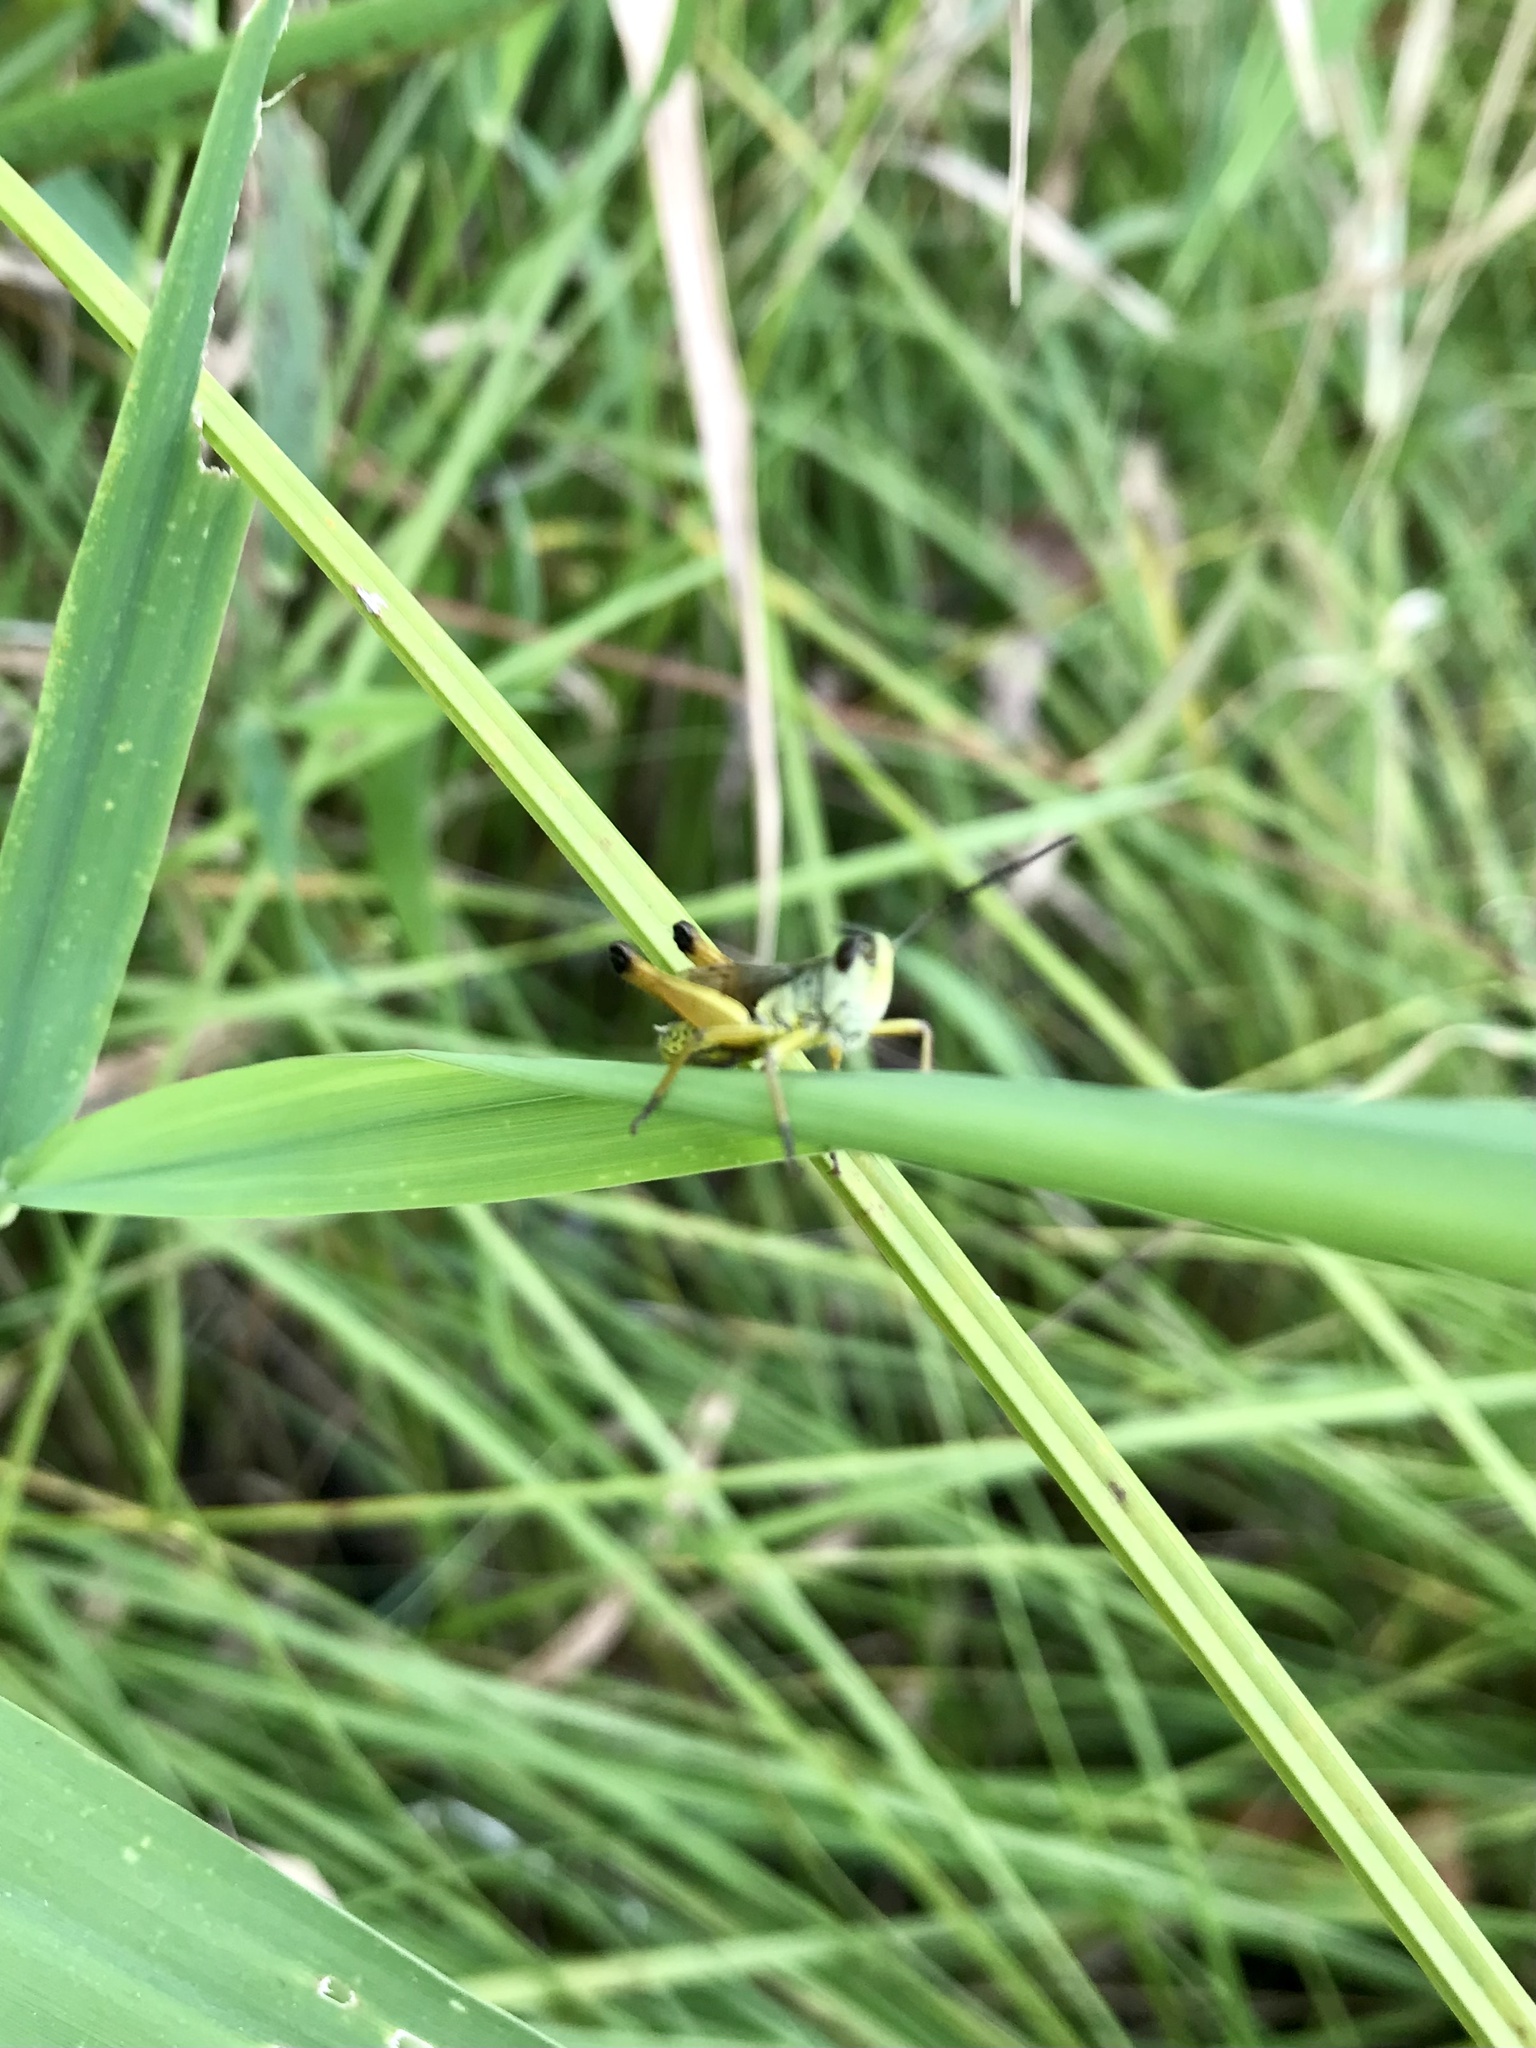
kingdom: Animalia
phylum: Arthropoda
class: Insecta
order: Orthoptera
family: Acrididae
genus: Pseudochorthippus
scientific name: Pseudochorthippus curtipennis
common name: Marsh meadow grasshopper
